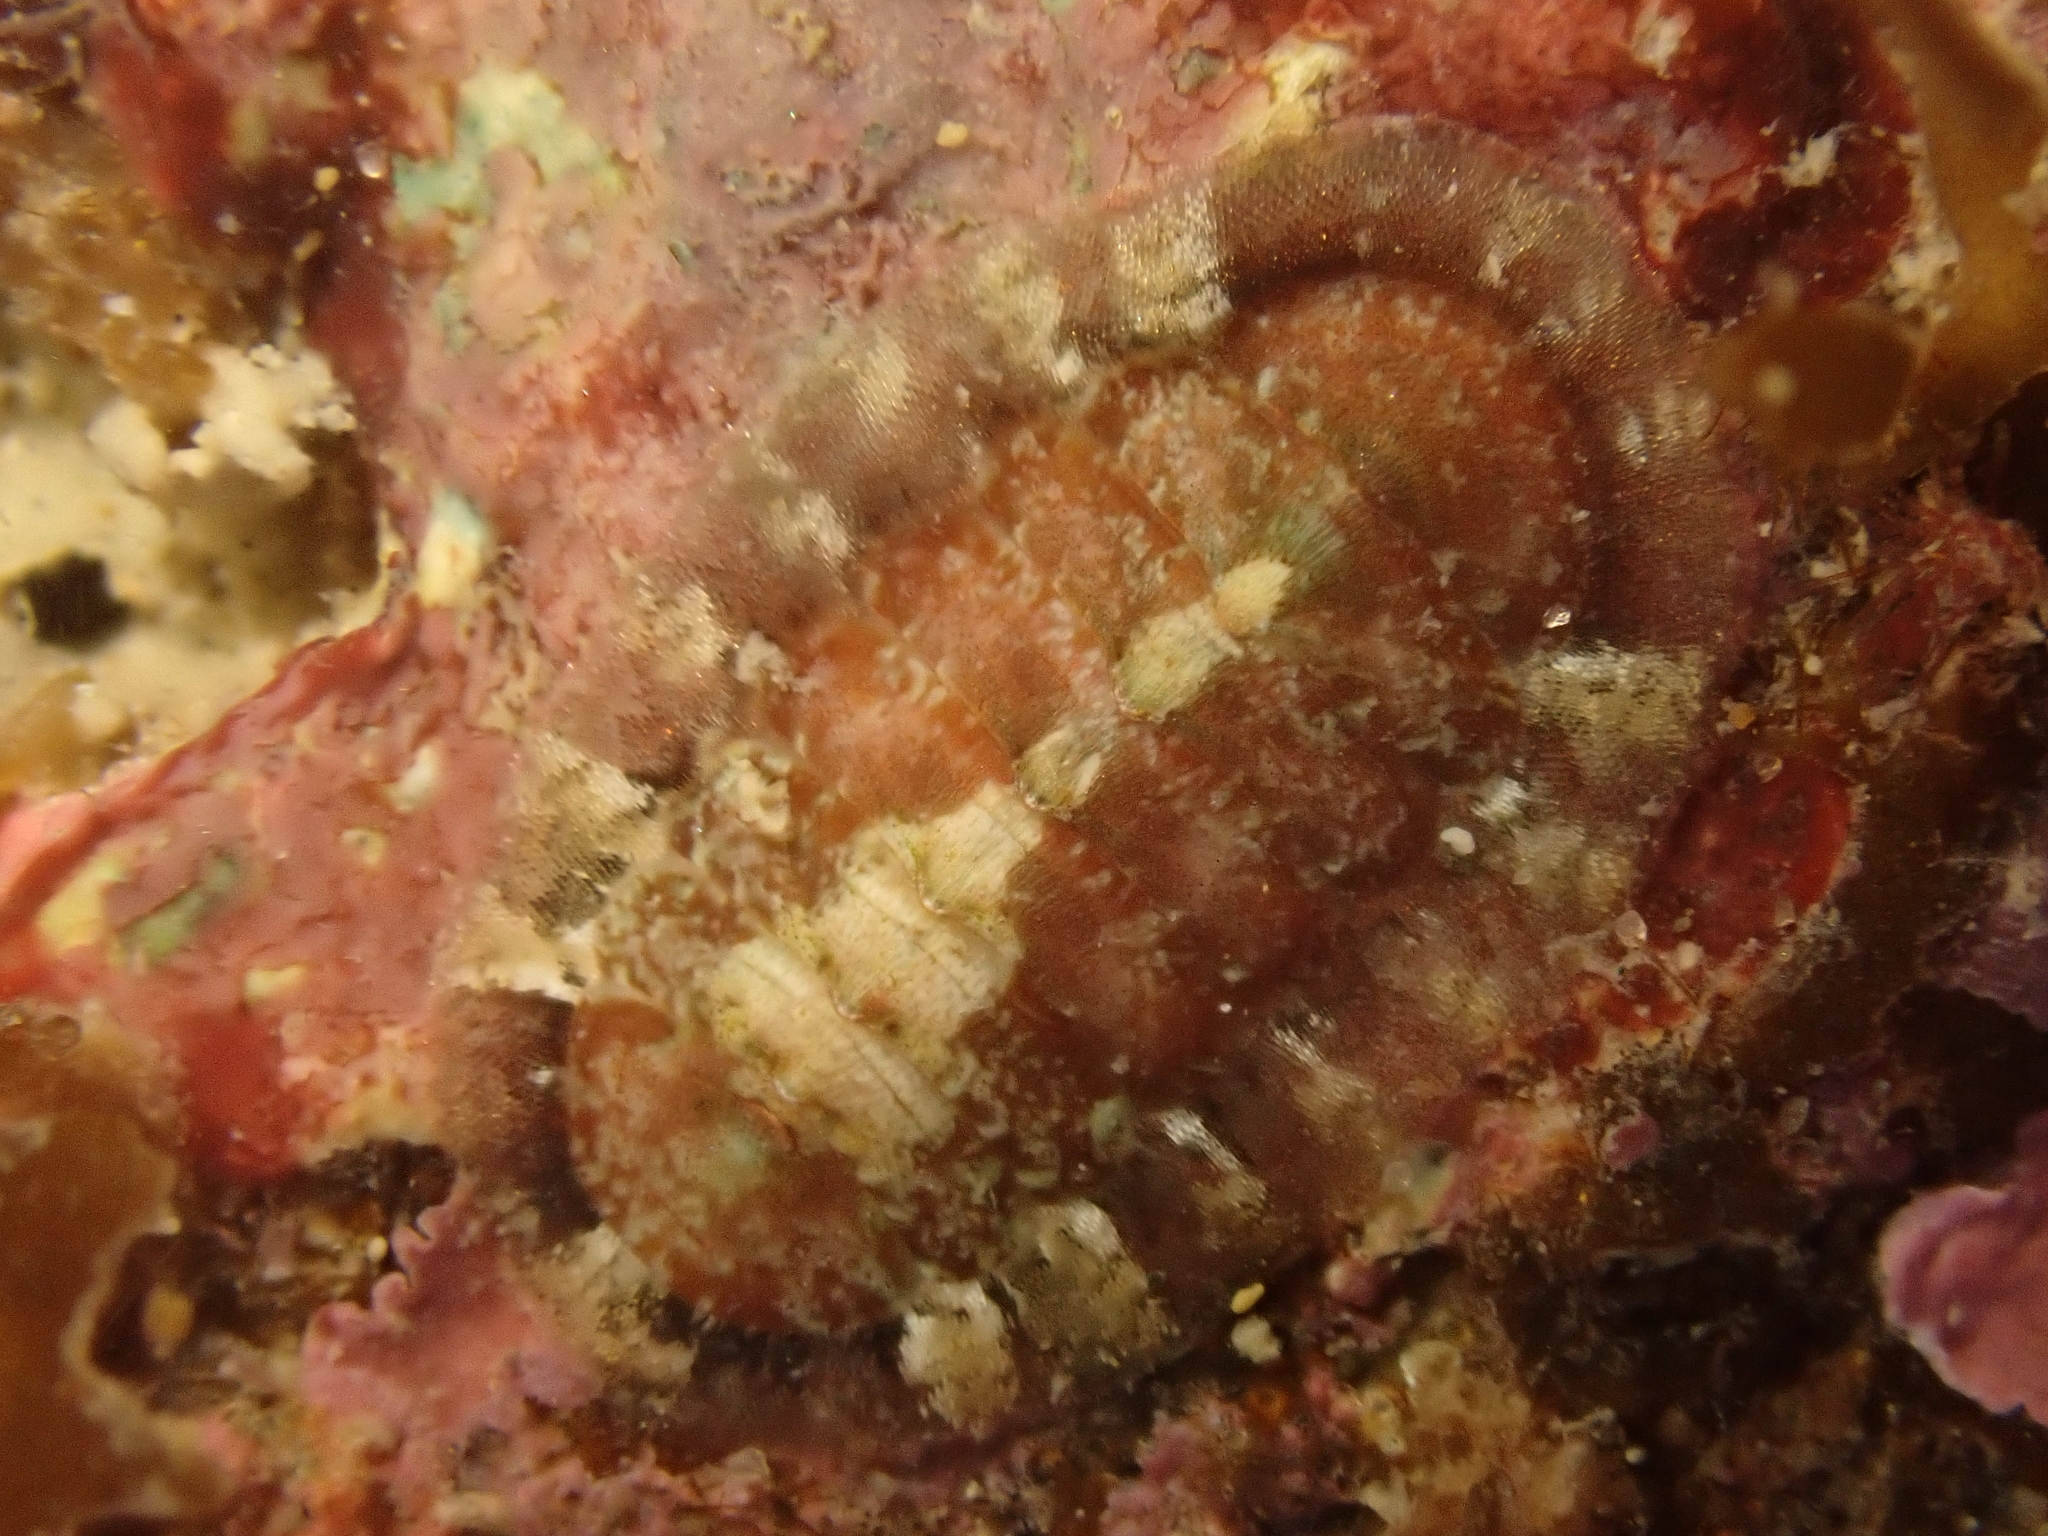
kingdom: Animalia
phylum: Mollusca
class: Polyplacophora
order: Callochitonida
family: Callochitonidae
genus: Callochiton
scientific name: Callochiton crocinus
